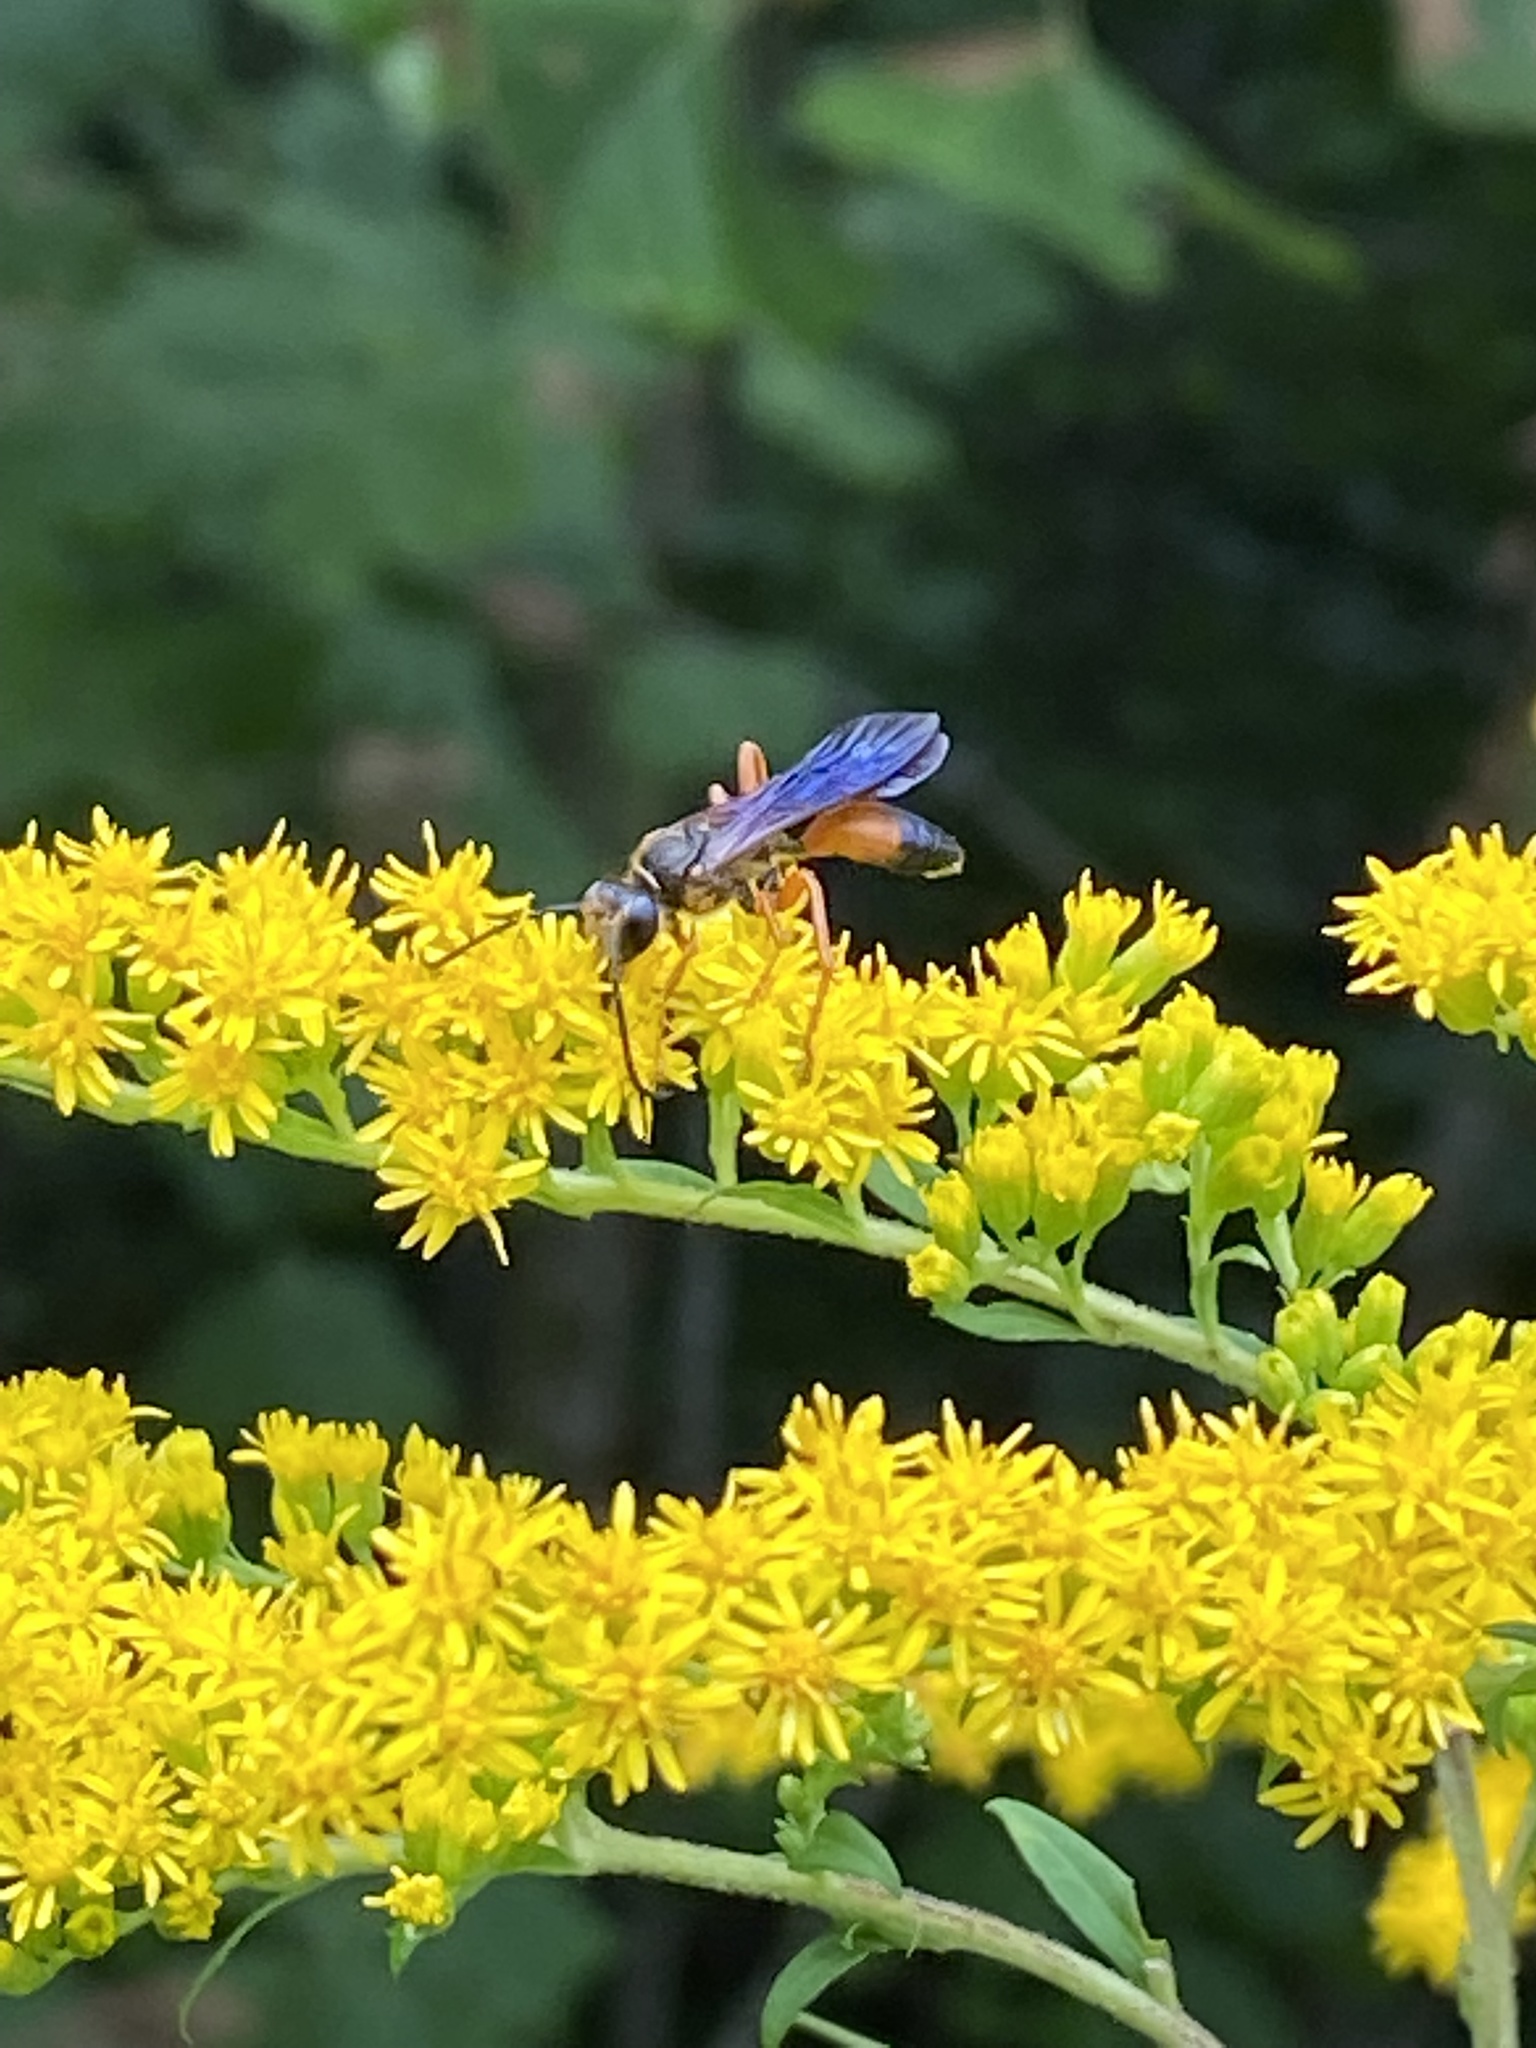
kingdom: Animalia
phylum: Arthropoda
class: Insecta
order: Hymenoptera
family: Sphecidae
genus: Sphex
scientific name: Sphex ichneumoneus
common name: Great golden digger wasp
